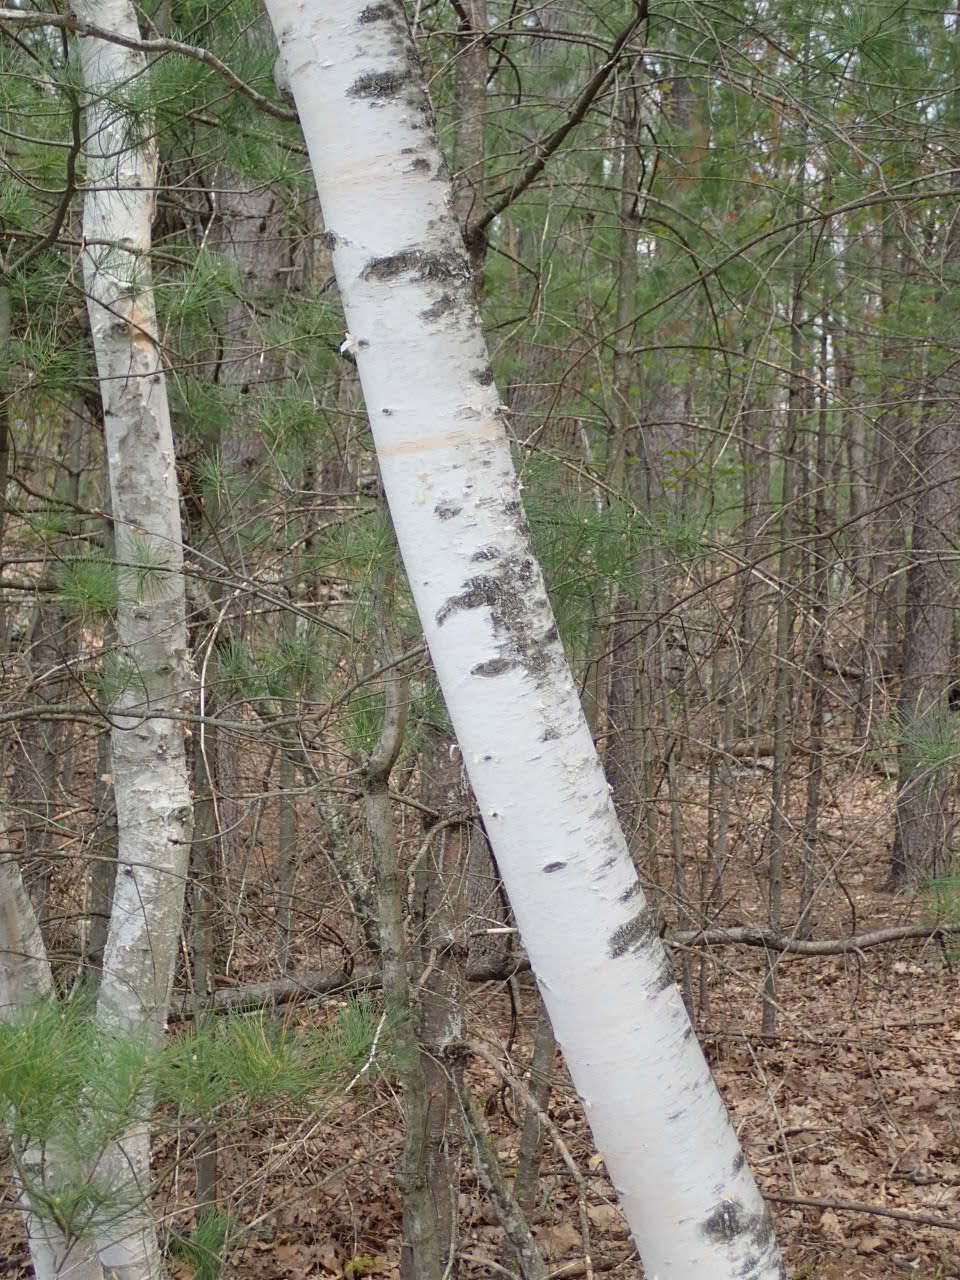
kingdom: Plantae
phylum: Tracheophyta
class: Magnoliopsida
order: Fagales
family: Betulaceae
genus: Betula
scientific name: Betula papyrifera
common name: Paper birch
